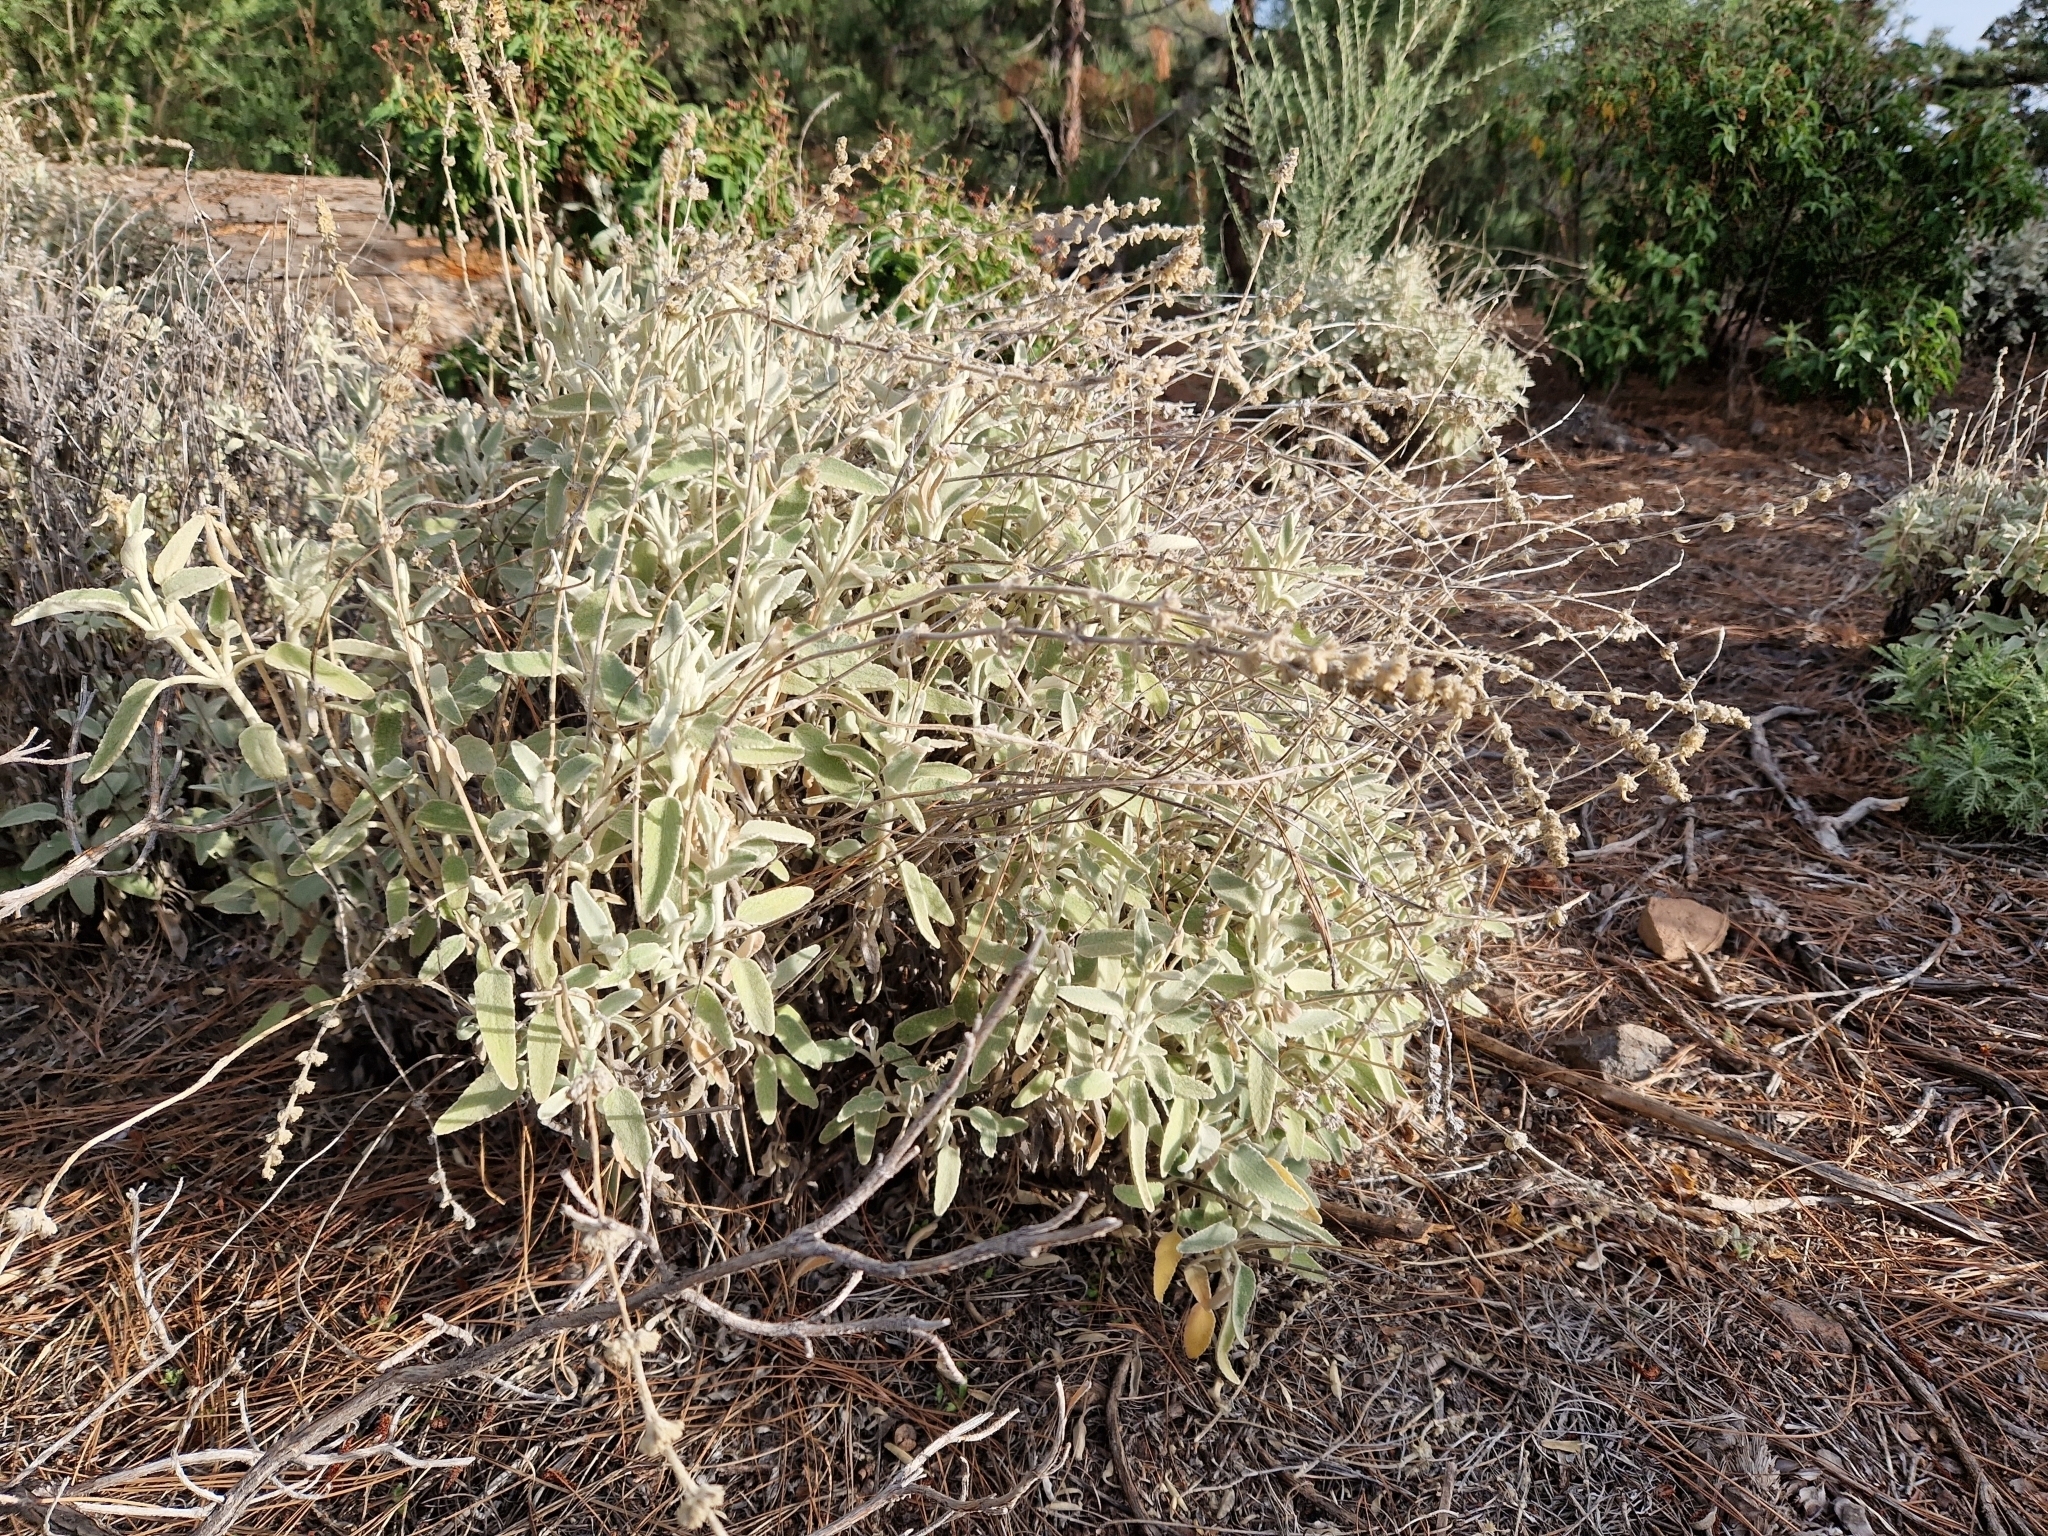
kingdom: Plantae
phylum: Tracheophyta
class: Magnoliopsida
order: Lamiales
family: Lamiaceae
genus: Sideritis
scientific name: Sideritis oroteneriffae
